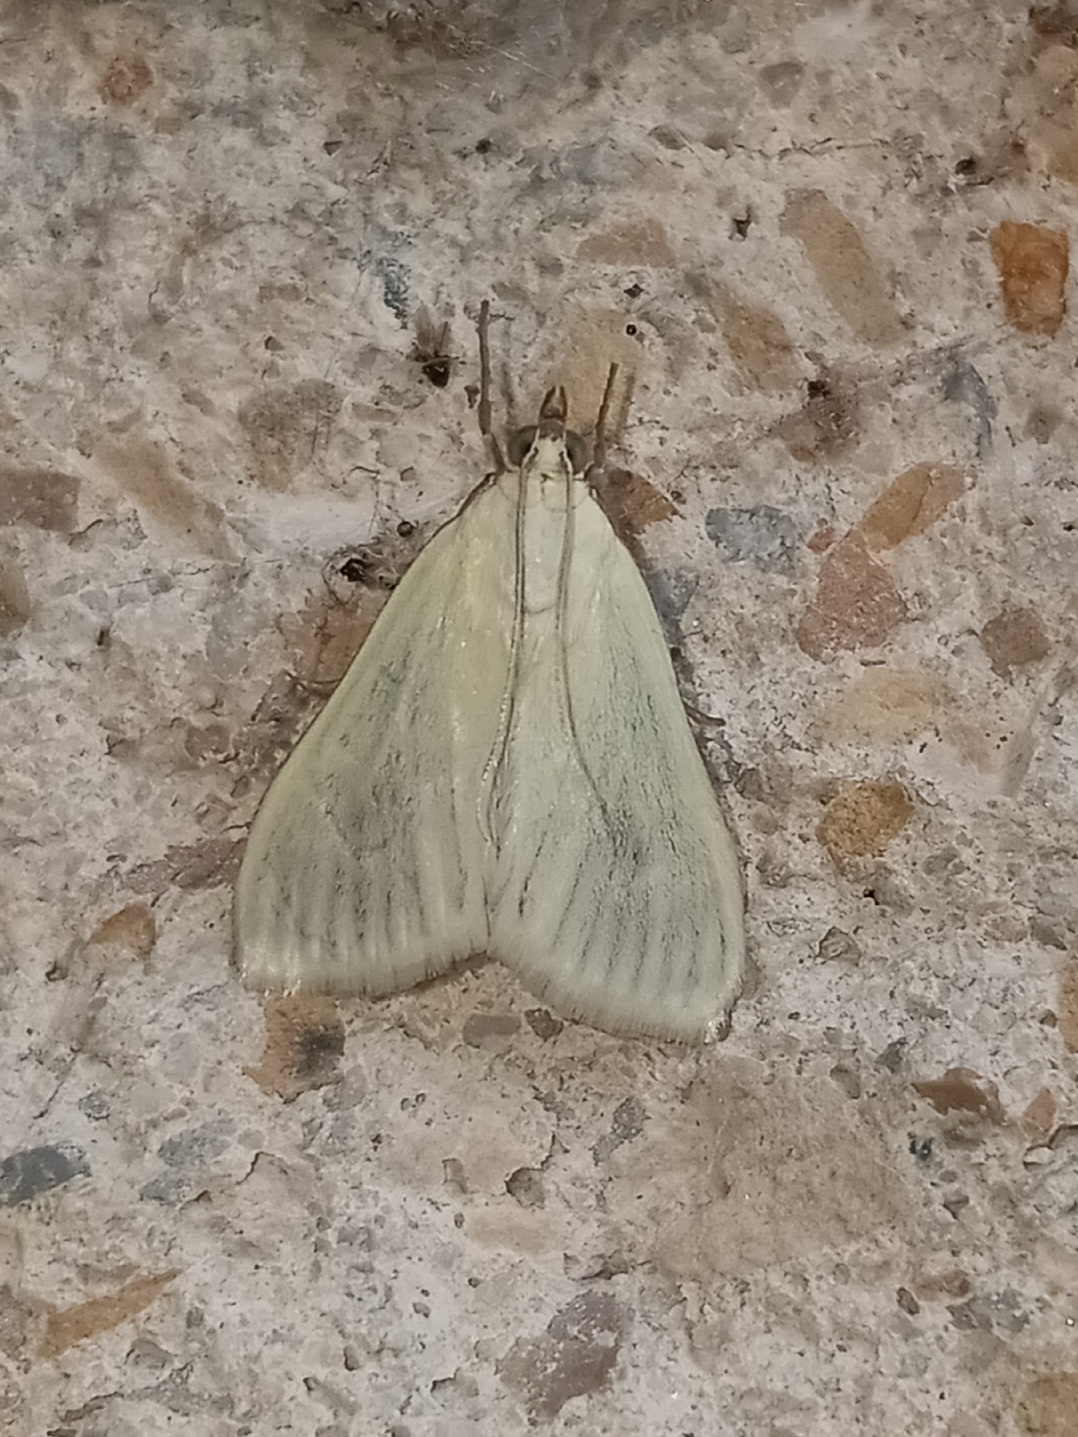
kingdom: Animalia
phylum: Arthropoda
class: Insecta
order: Lepidoptera
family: Crambidae
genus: Sitochroa
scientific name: Sitochroa palealis
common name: Greenish-yellow sitochroa moth
